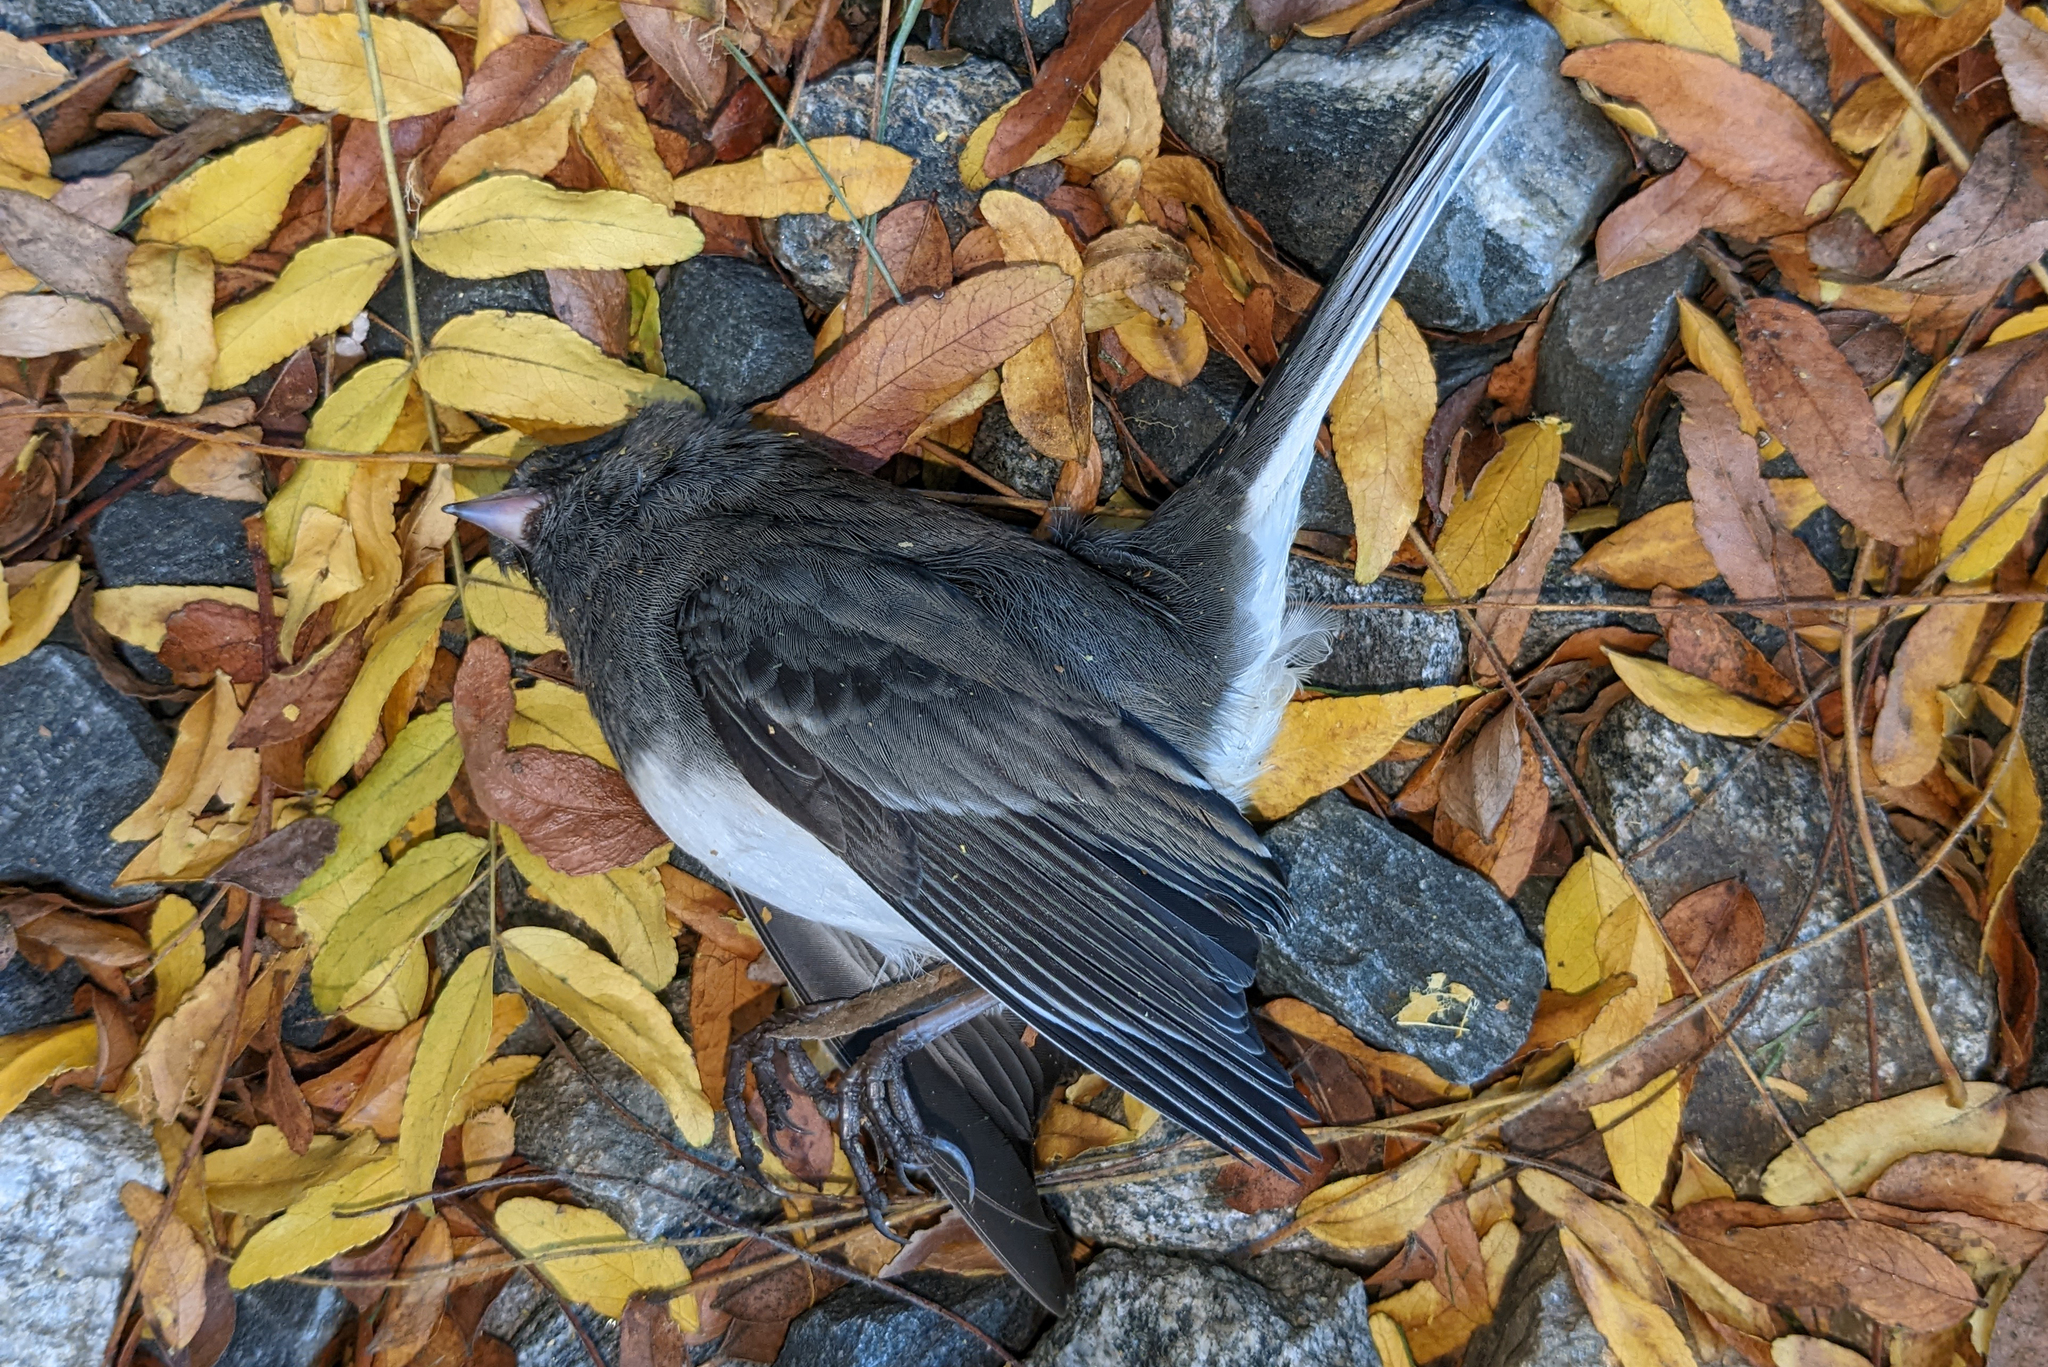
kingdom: Animalia
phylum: Chordata
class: Aves
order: Passeriformes
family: Passerellidae
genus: Junco
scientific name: Junco hyemalis
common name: Dark-eyed junco
